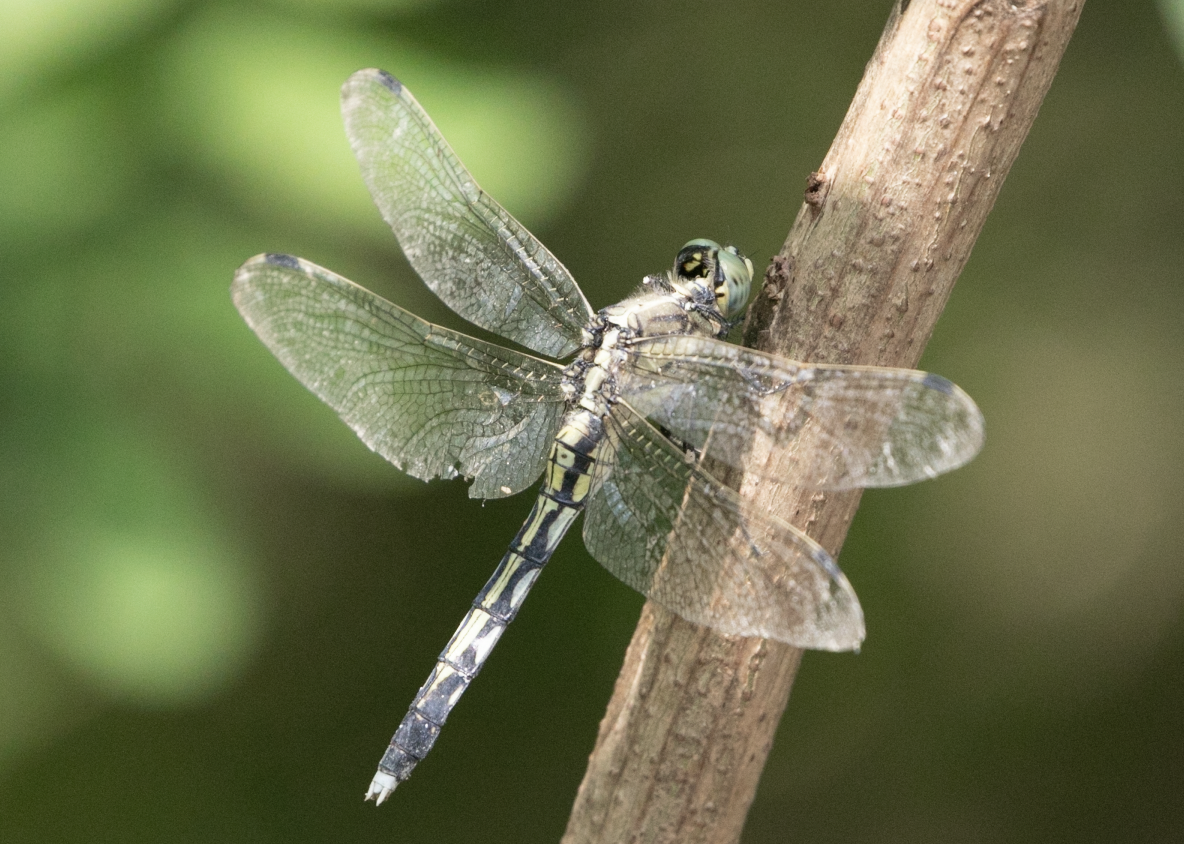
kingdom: Animalia
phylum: Arthropoda
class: Insecta
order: Odonata
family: Libellulidae
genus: Orthetrum
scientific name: Orthetrum albistylum
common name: White-tailed skimmer
